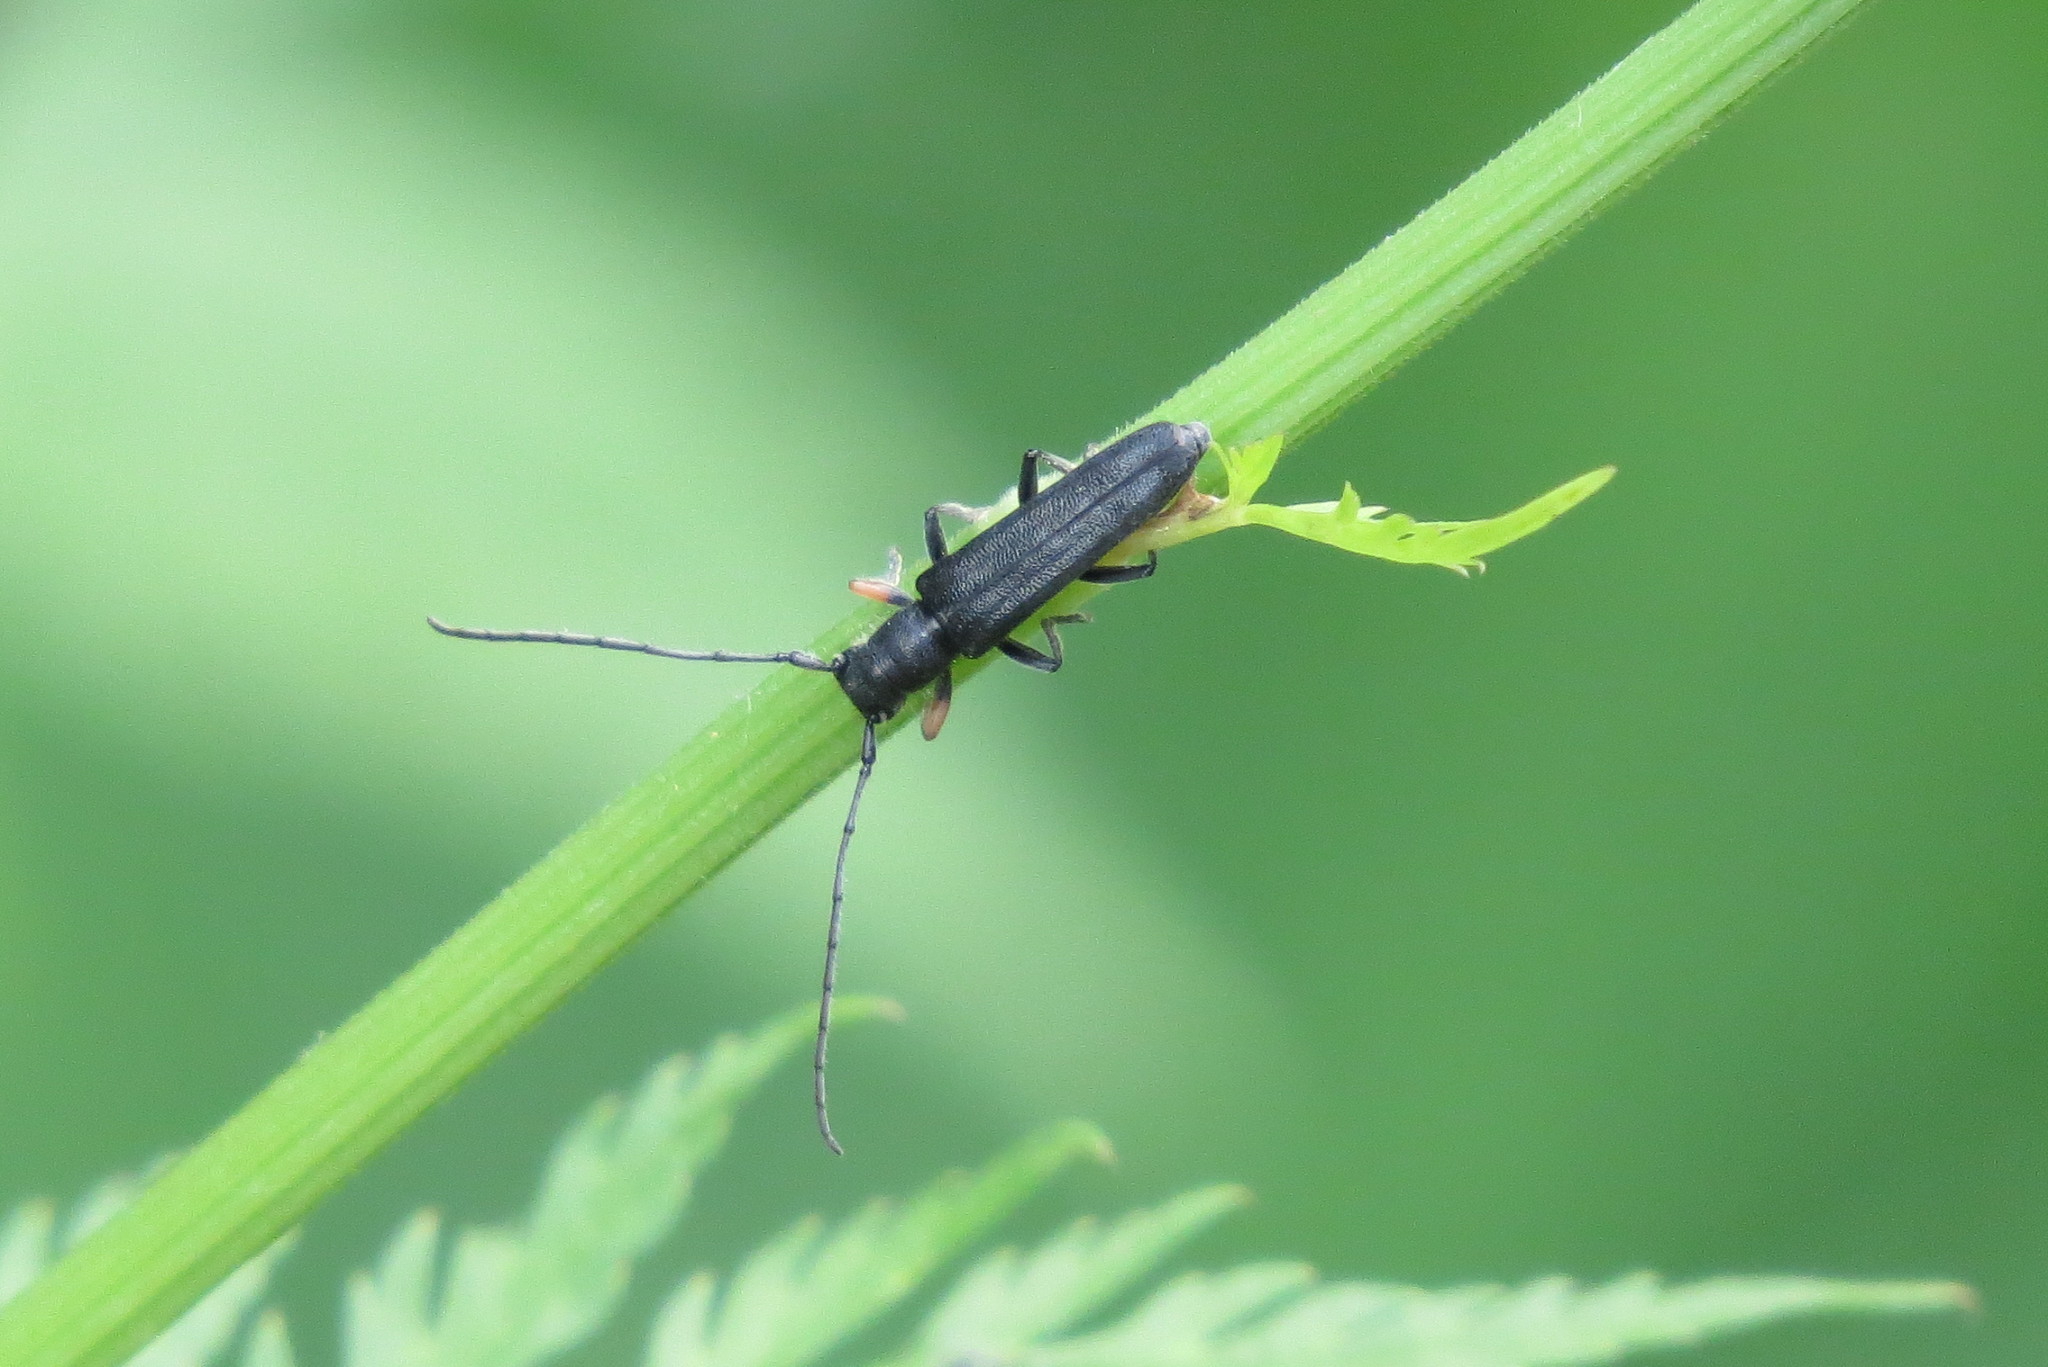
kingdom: Animalia
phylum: Arthropoda
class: Insecta
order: Coleoptera
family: Cerambycidae
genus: Phytoecia
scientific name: Phytoecia cylindrica
